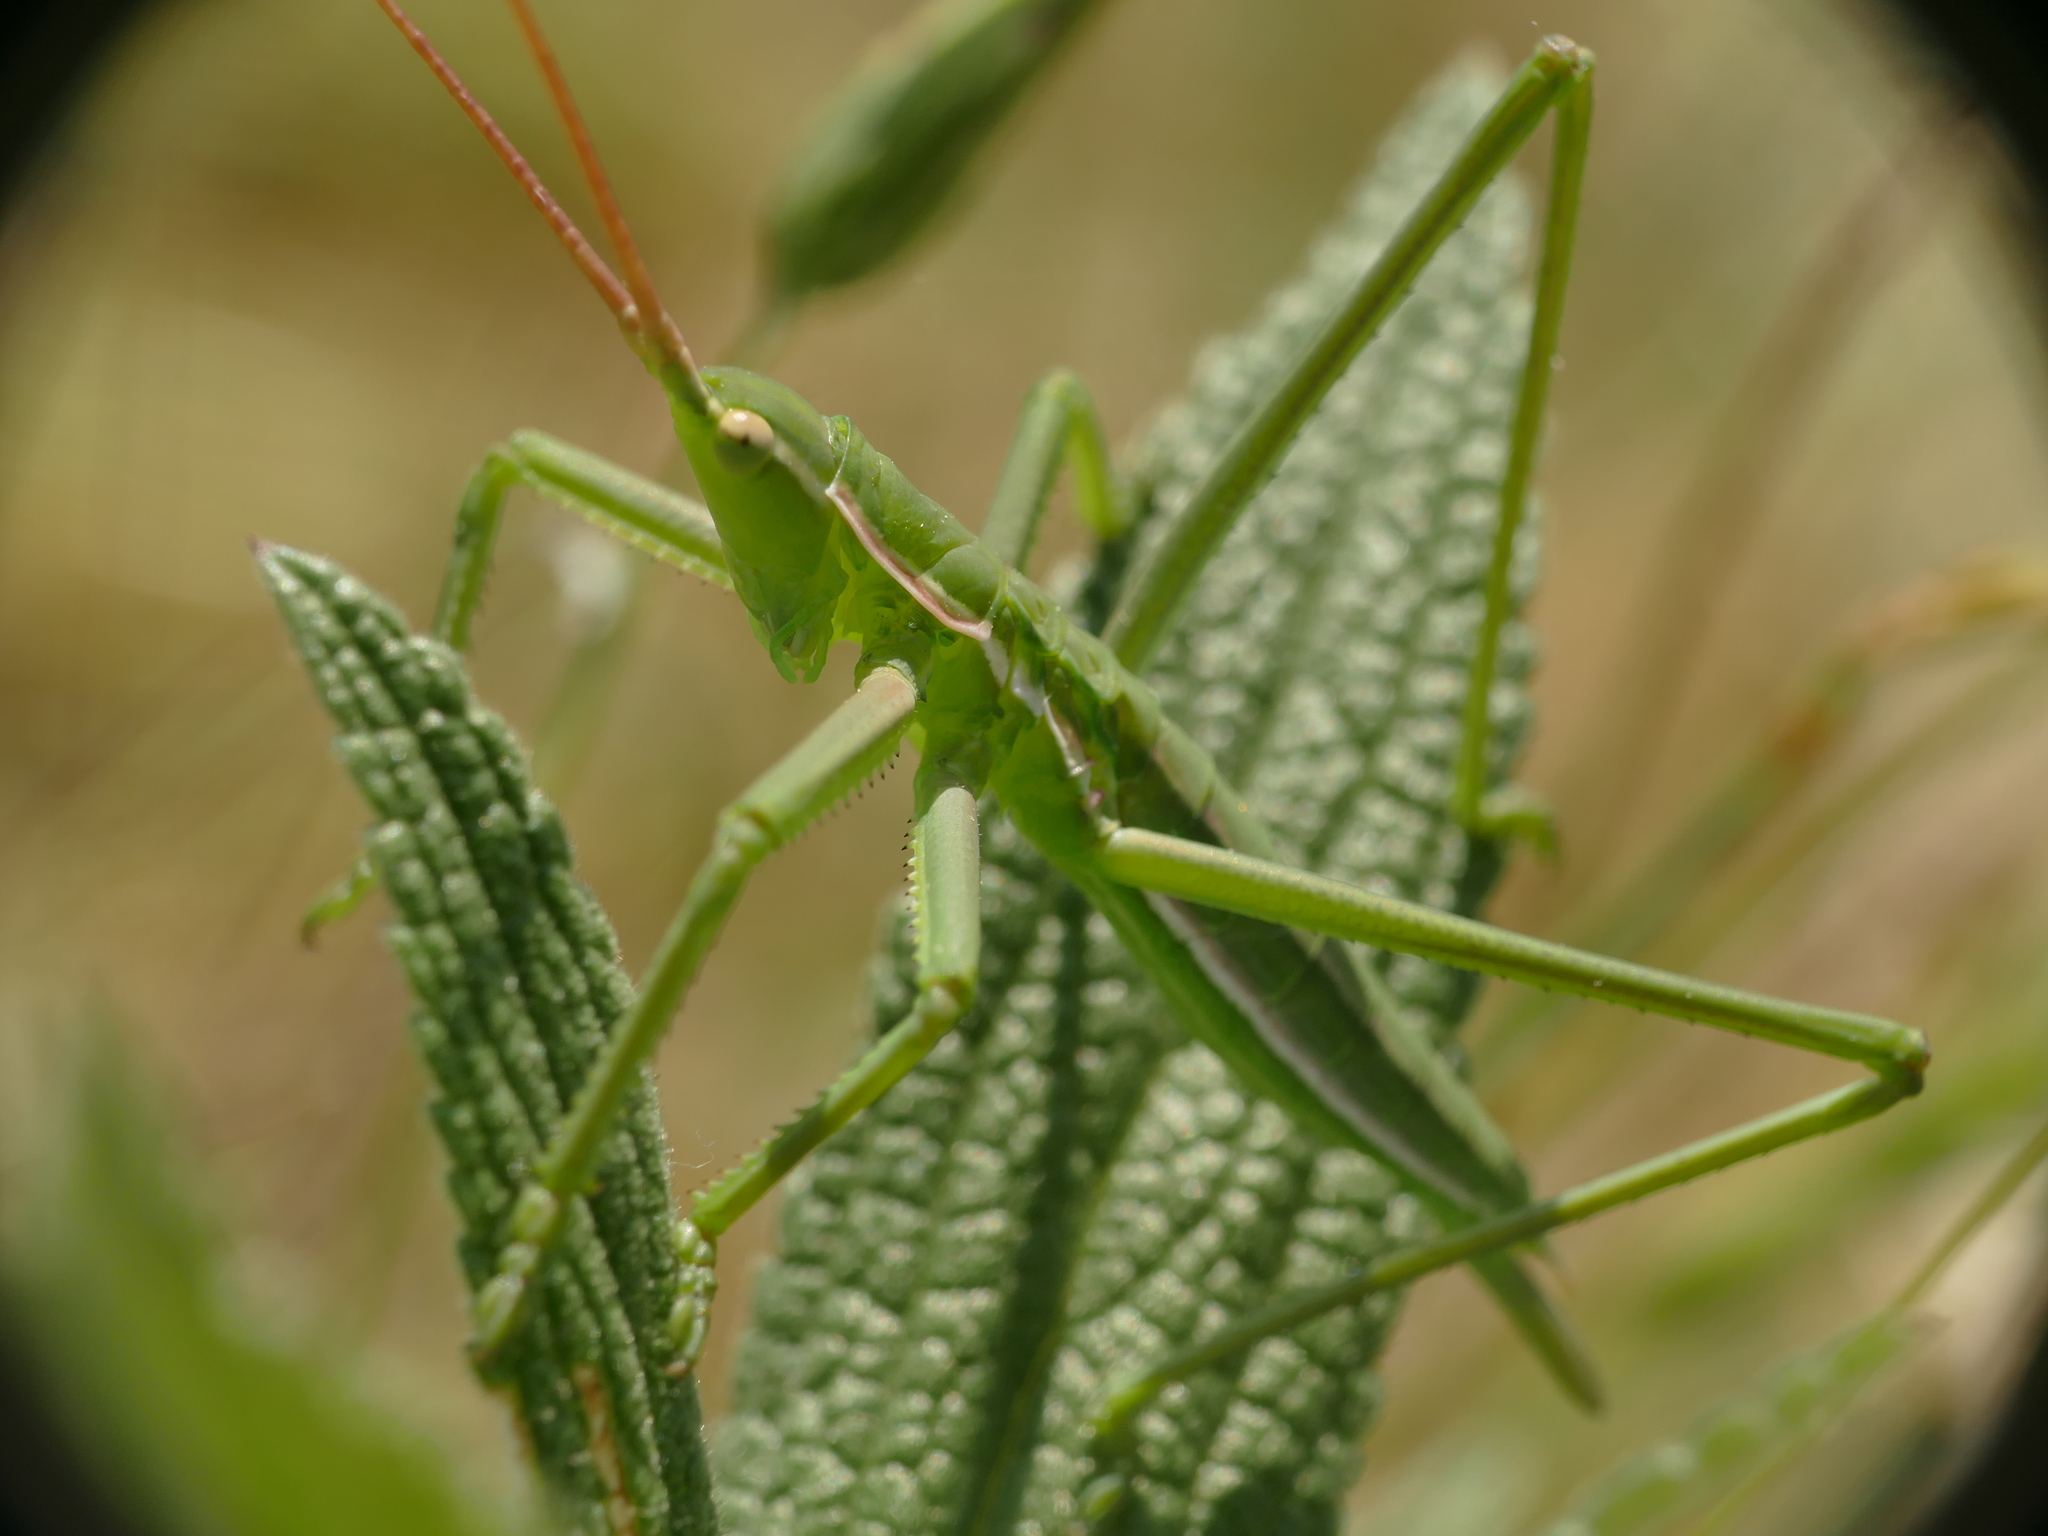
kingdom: Animalia
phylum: Arthropoda
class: Insecta
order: Orthoptera
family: Tettigoniidae
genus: Saga
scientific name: Saga pedo
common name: Common predatory bush-cricket
